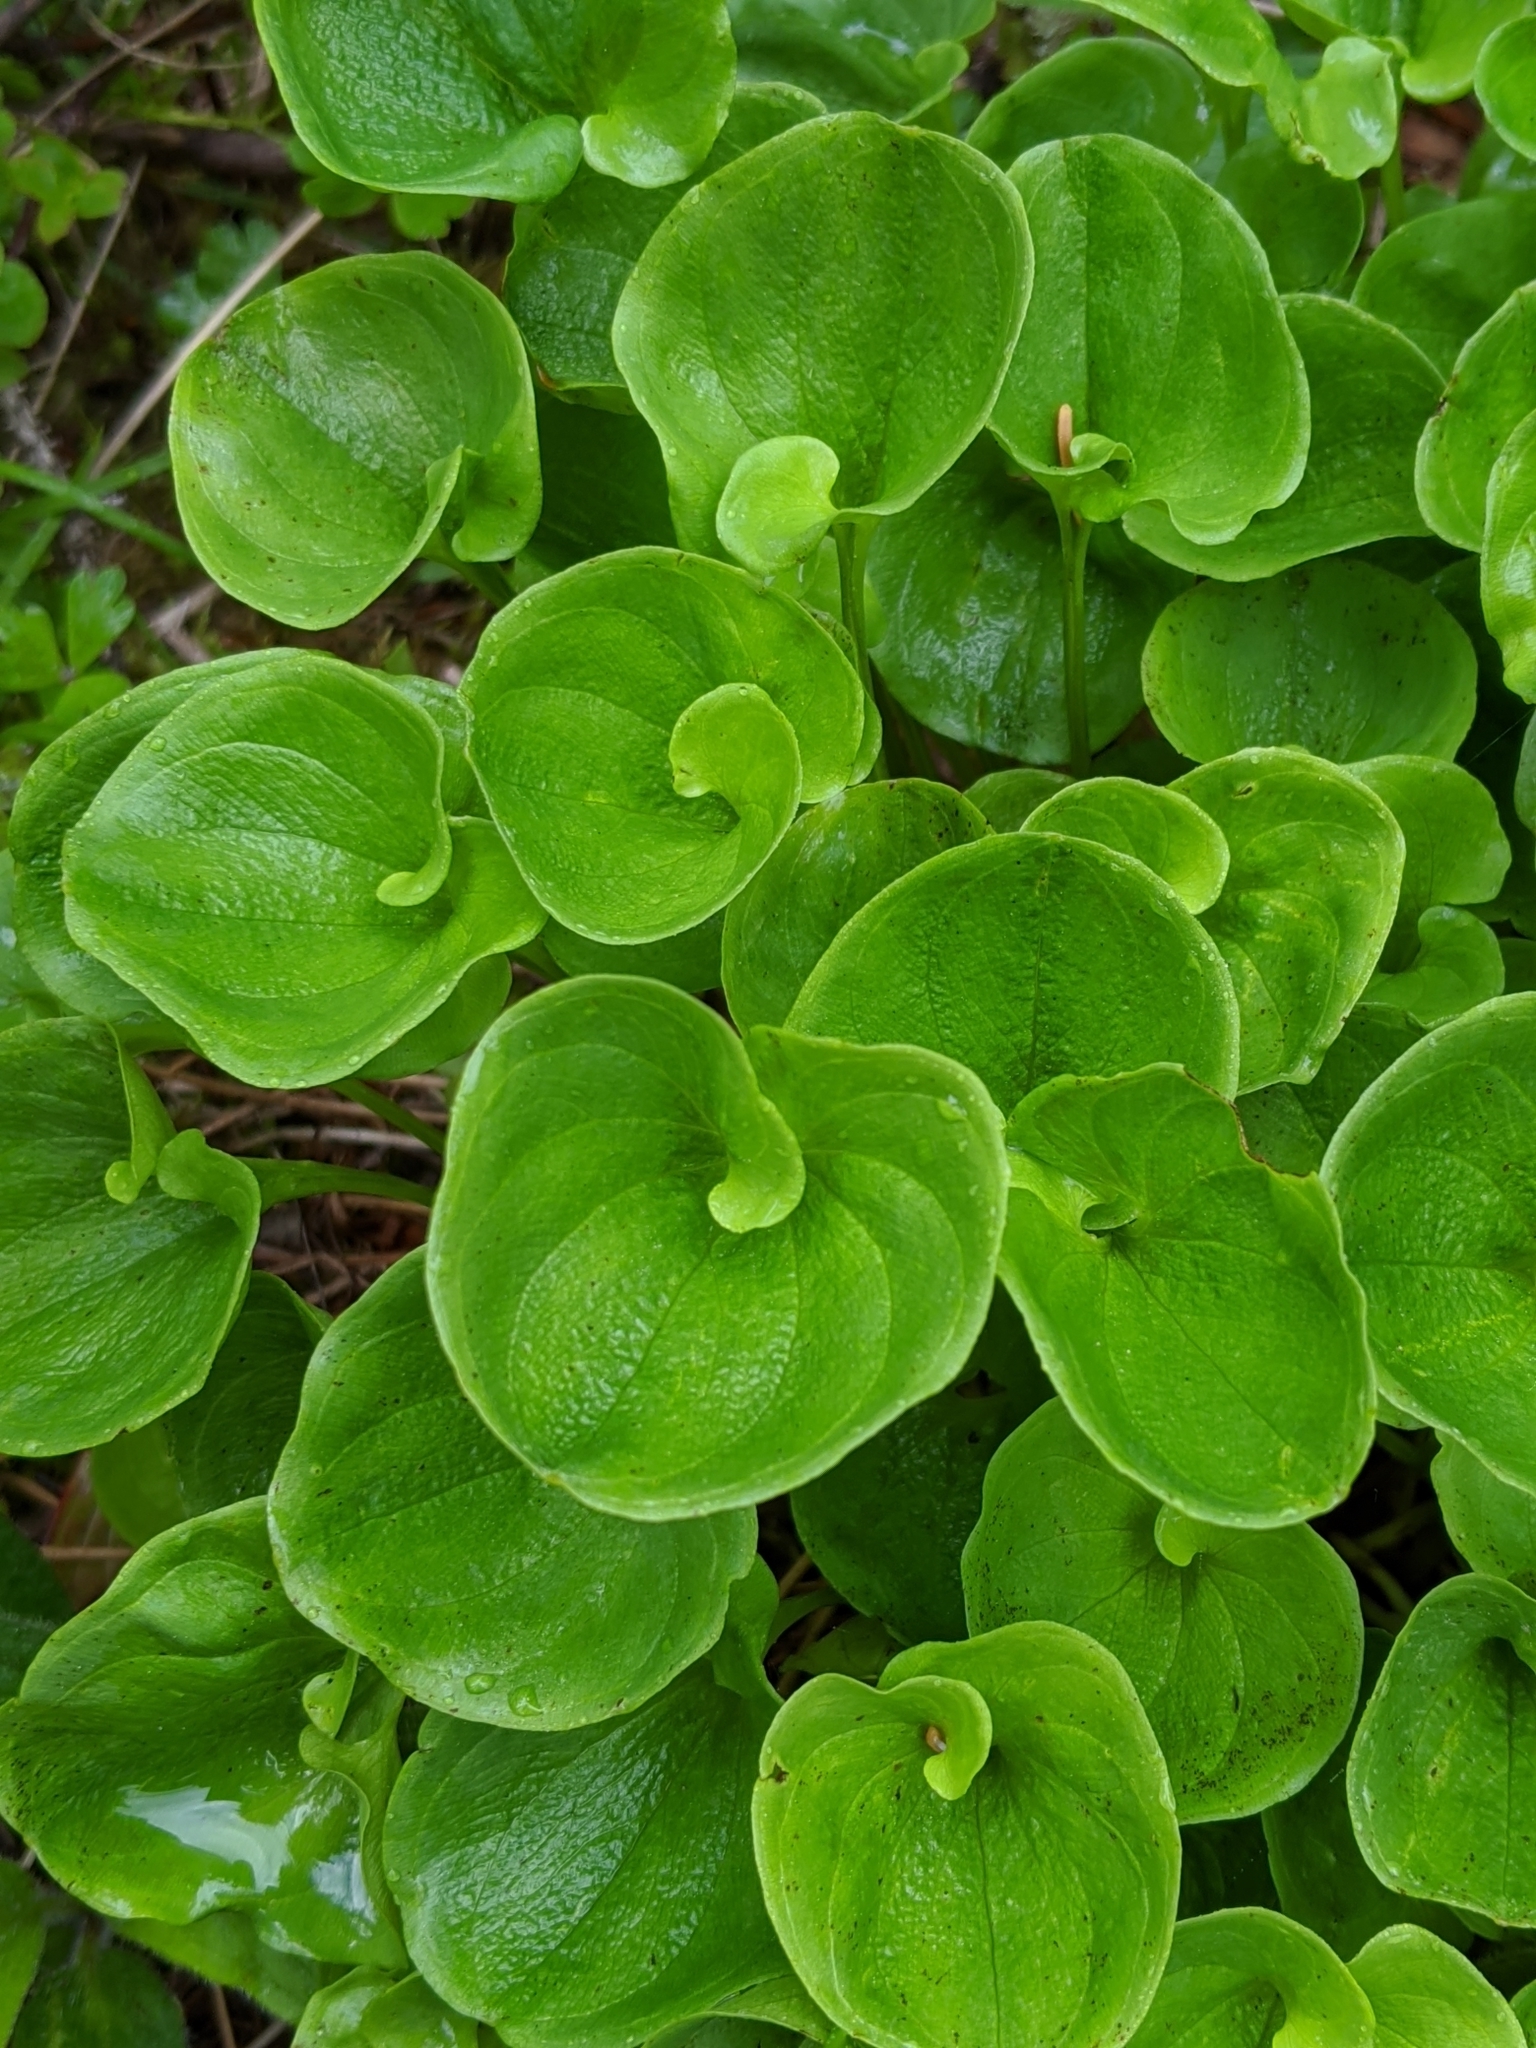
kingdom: Plantae
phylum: Tracheophyta
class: Magnoliopsida
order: Celastrales
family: Parnassiaceae
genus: Parnassia
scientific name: Parnassia fimbriata
